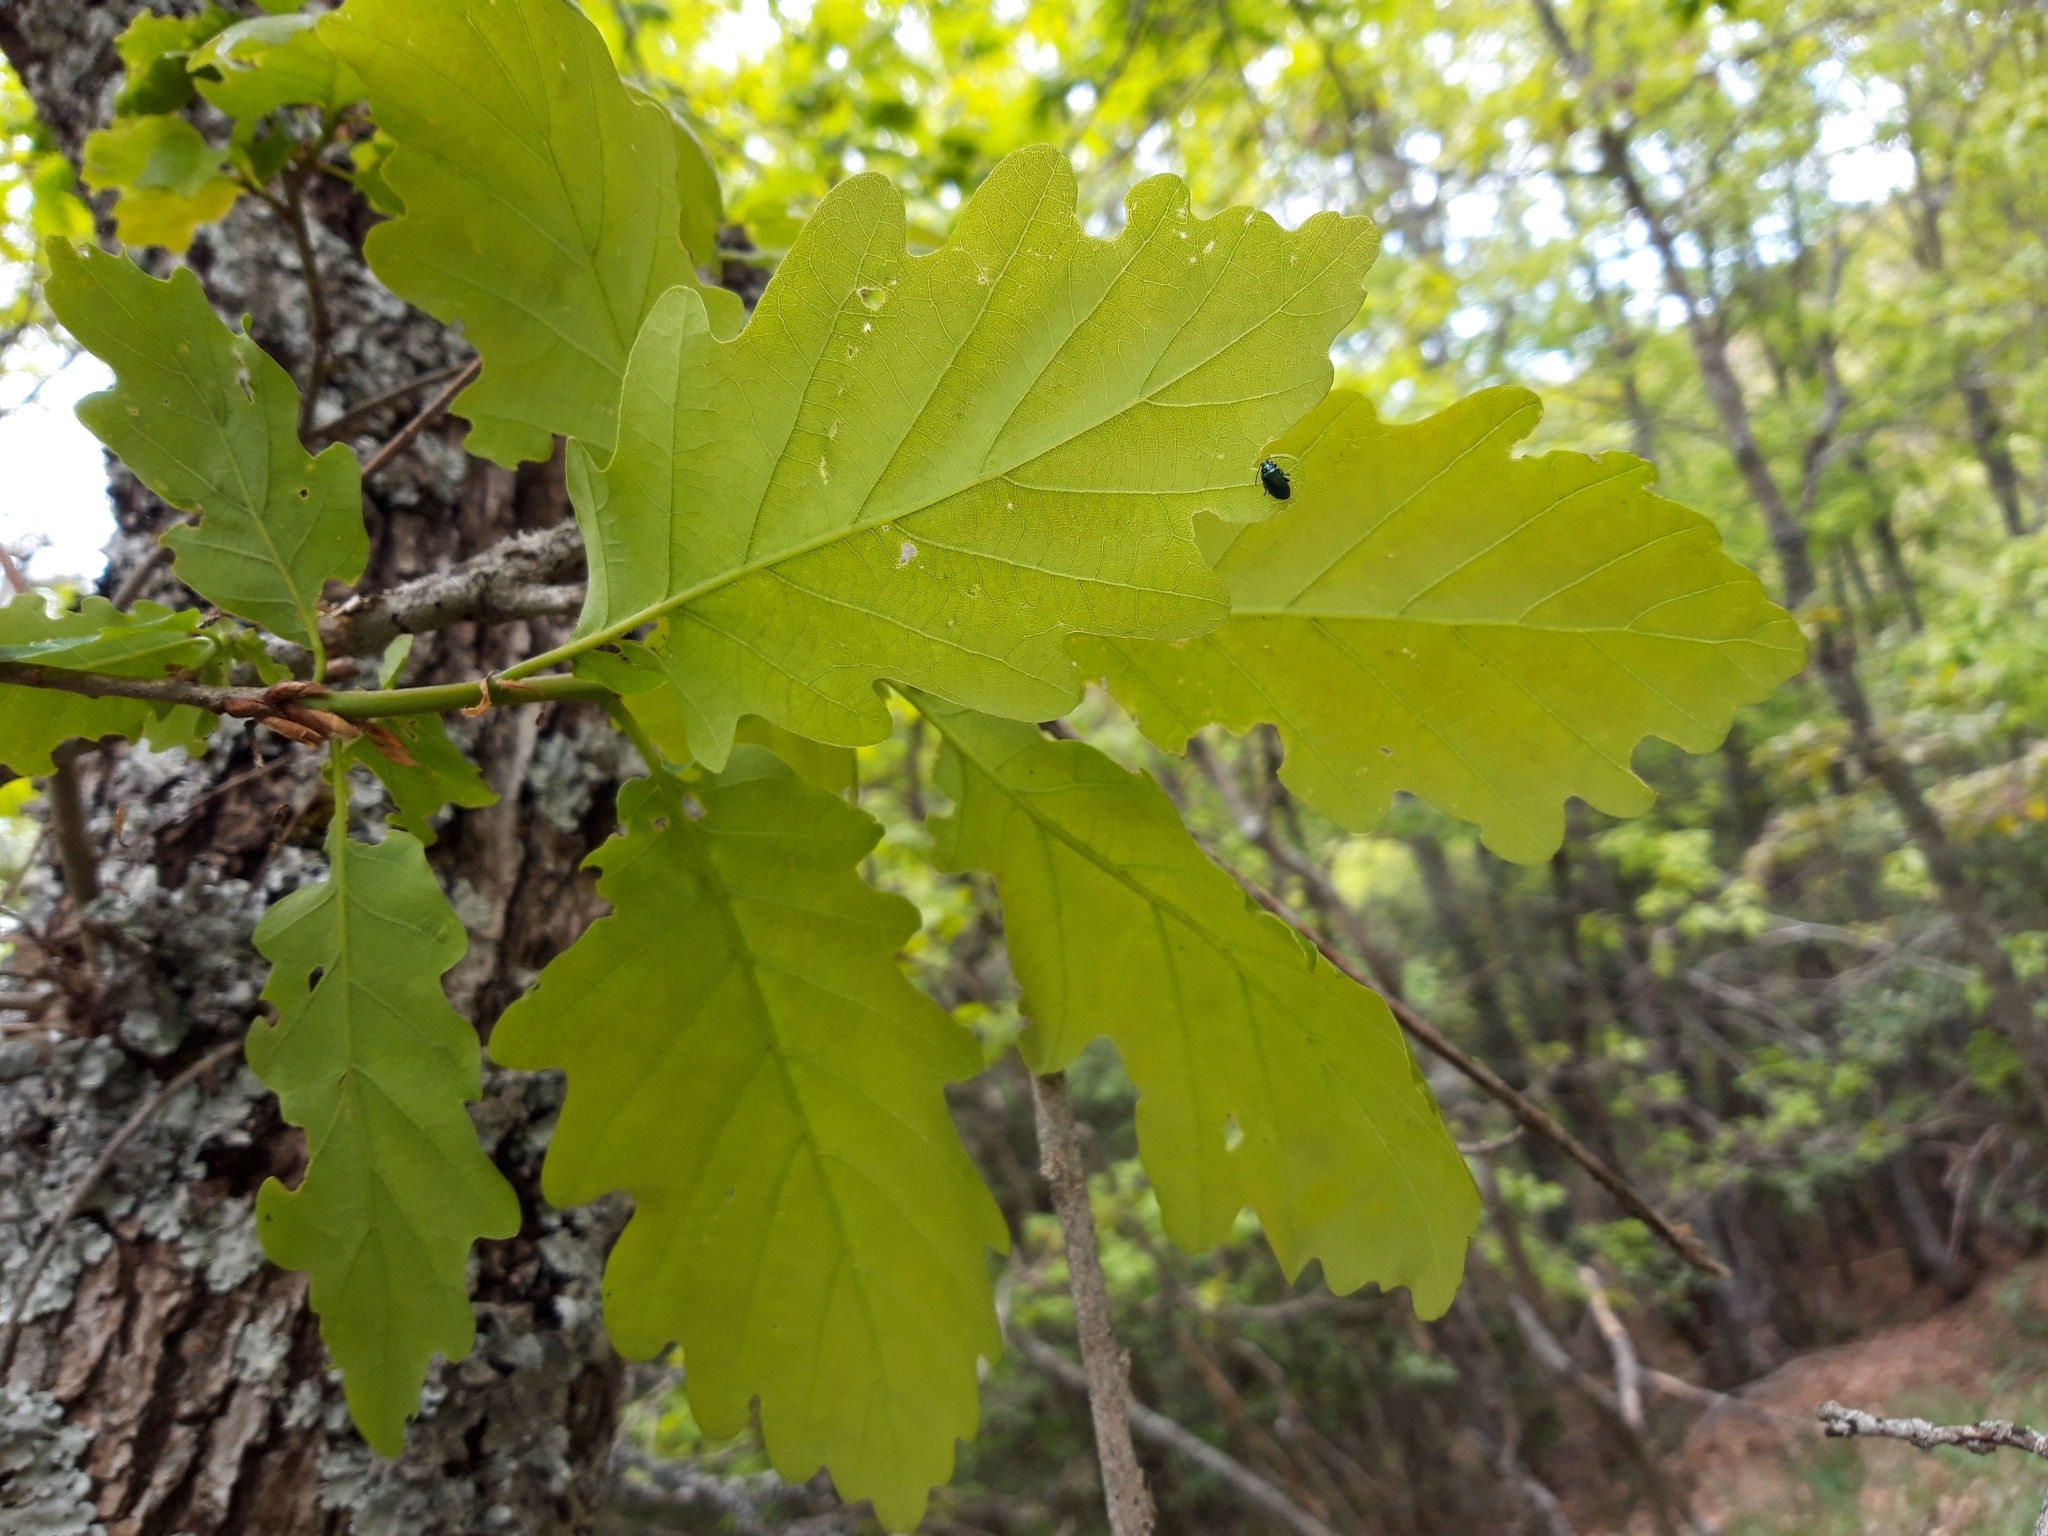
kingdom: Plantae
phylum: Tracheophyta
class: Magnoliopsida
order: Fagales
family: Fagaceae
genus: Quercus
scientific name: Quercus petraea
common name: Sessile oak
